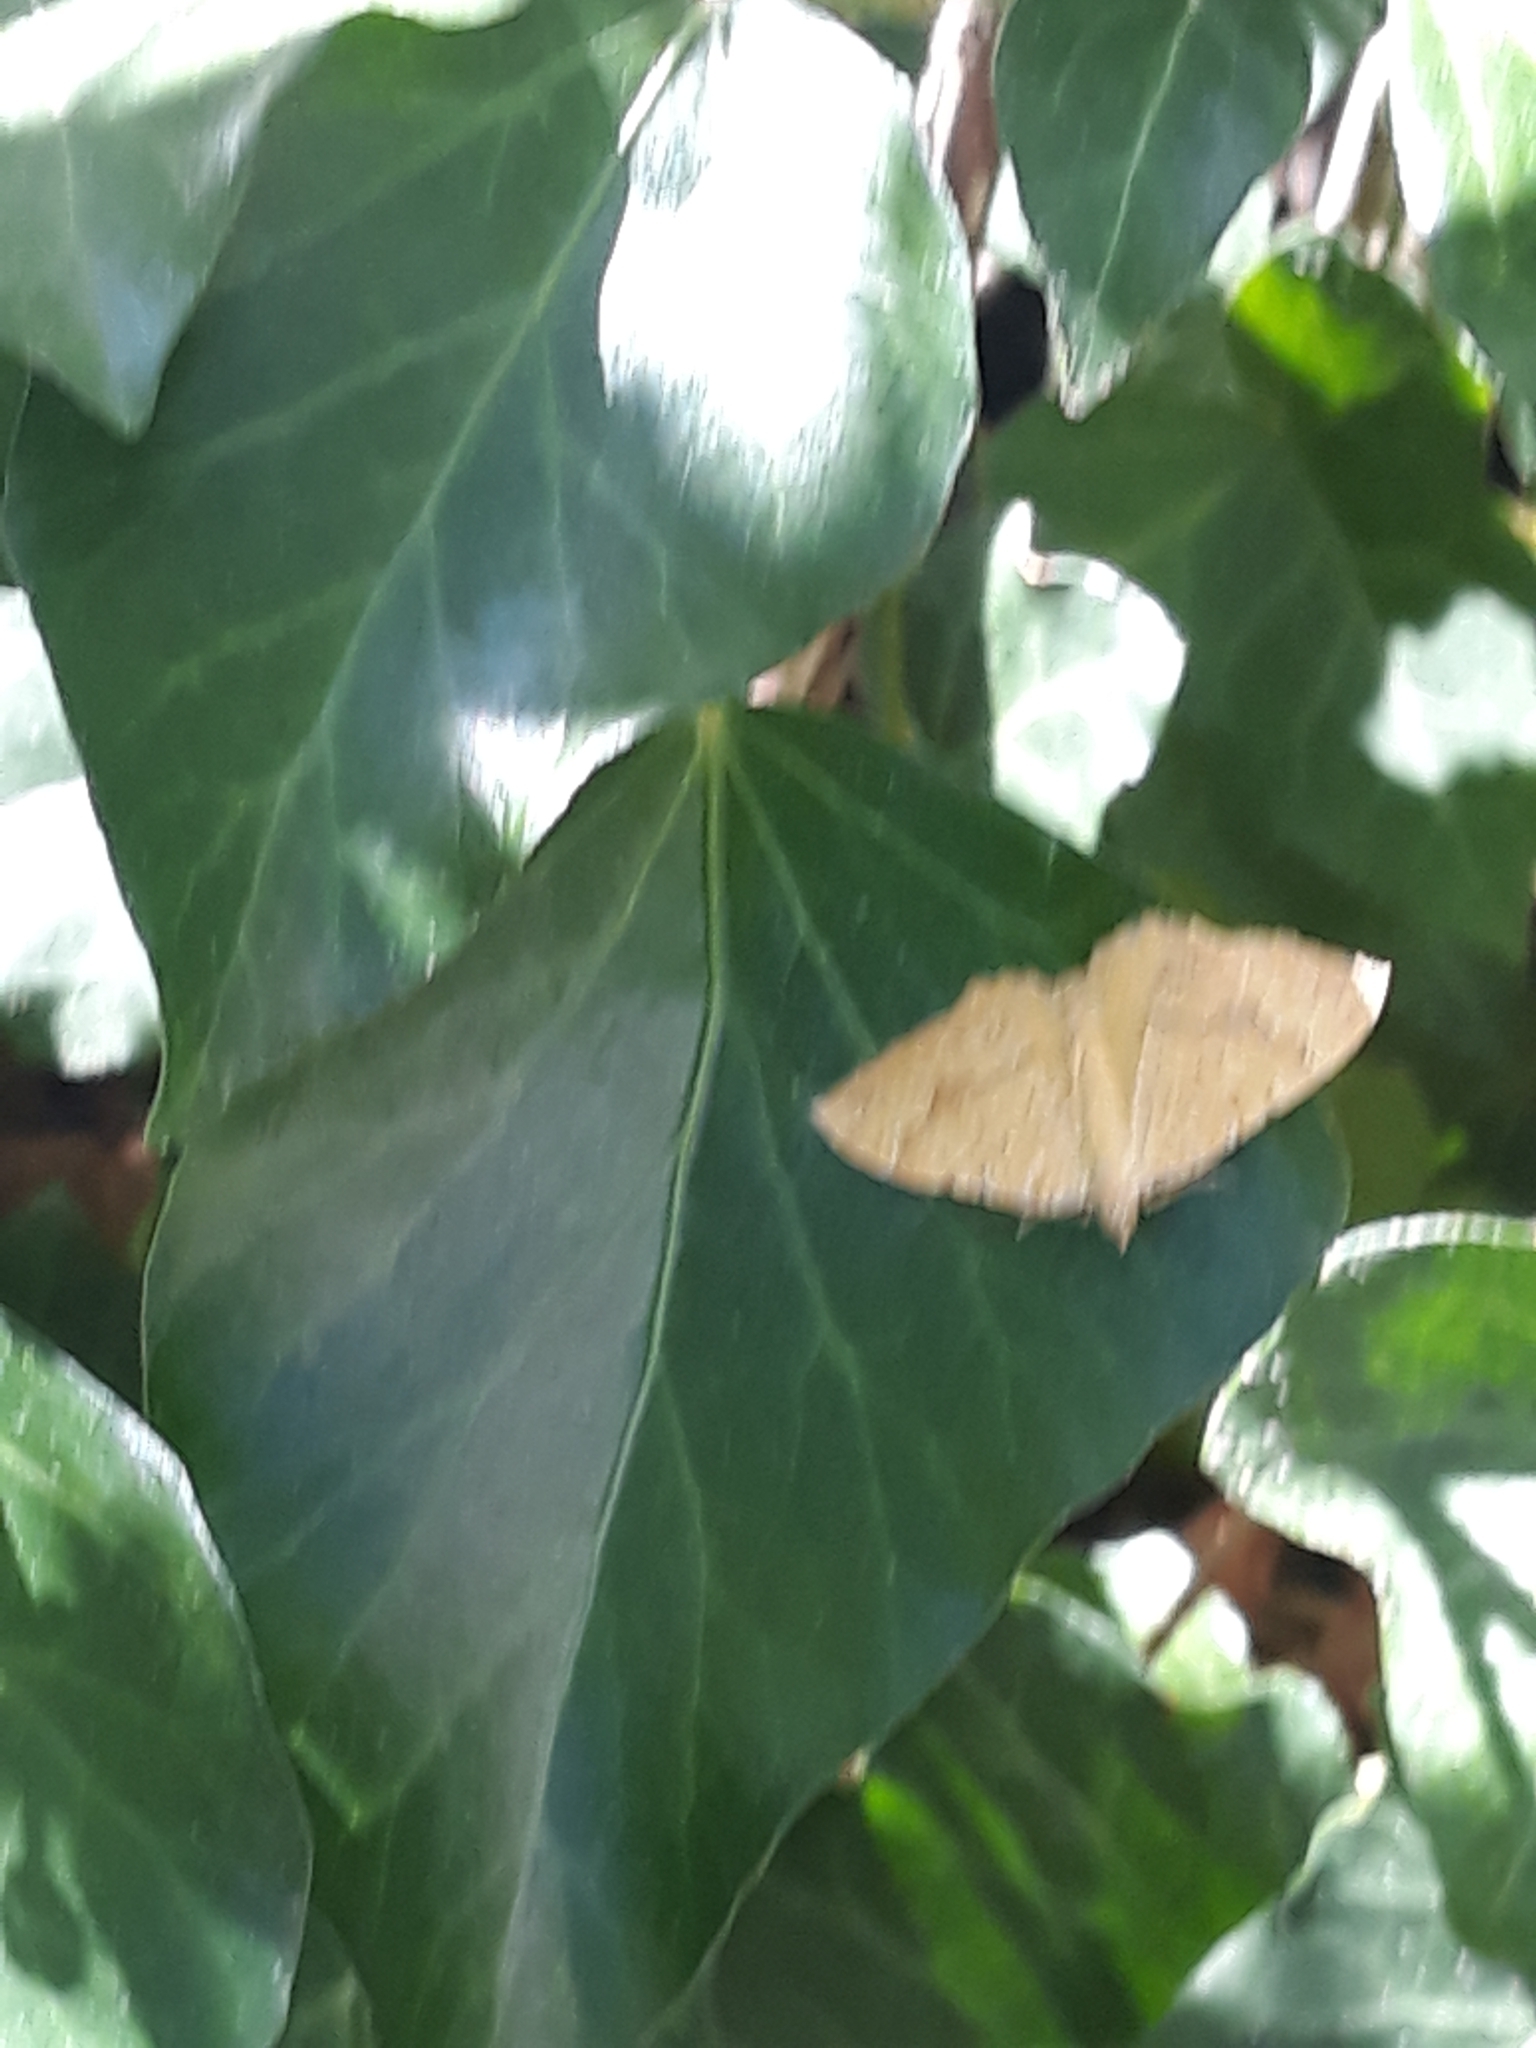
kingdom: Animalia
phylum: Arthropoda
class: Insecta
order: Lepidoptera
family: Geometridae
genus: Camptogramma
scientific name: Camptogramma bilineata
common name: Yellow shell
